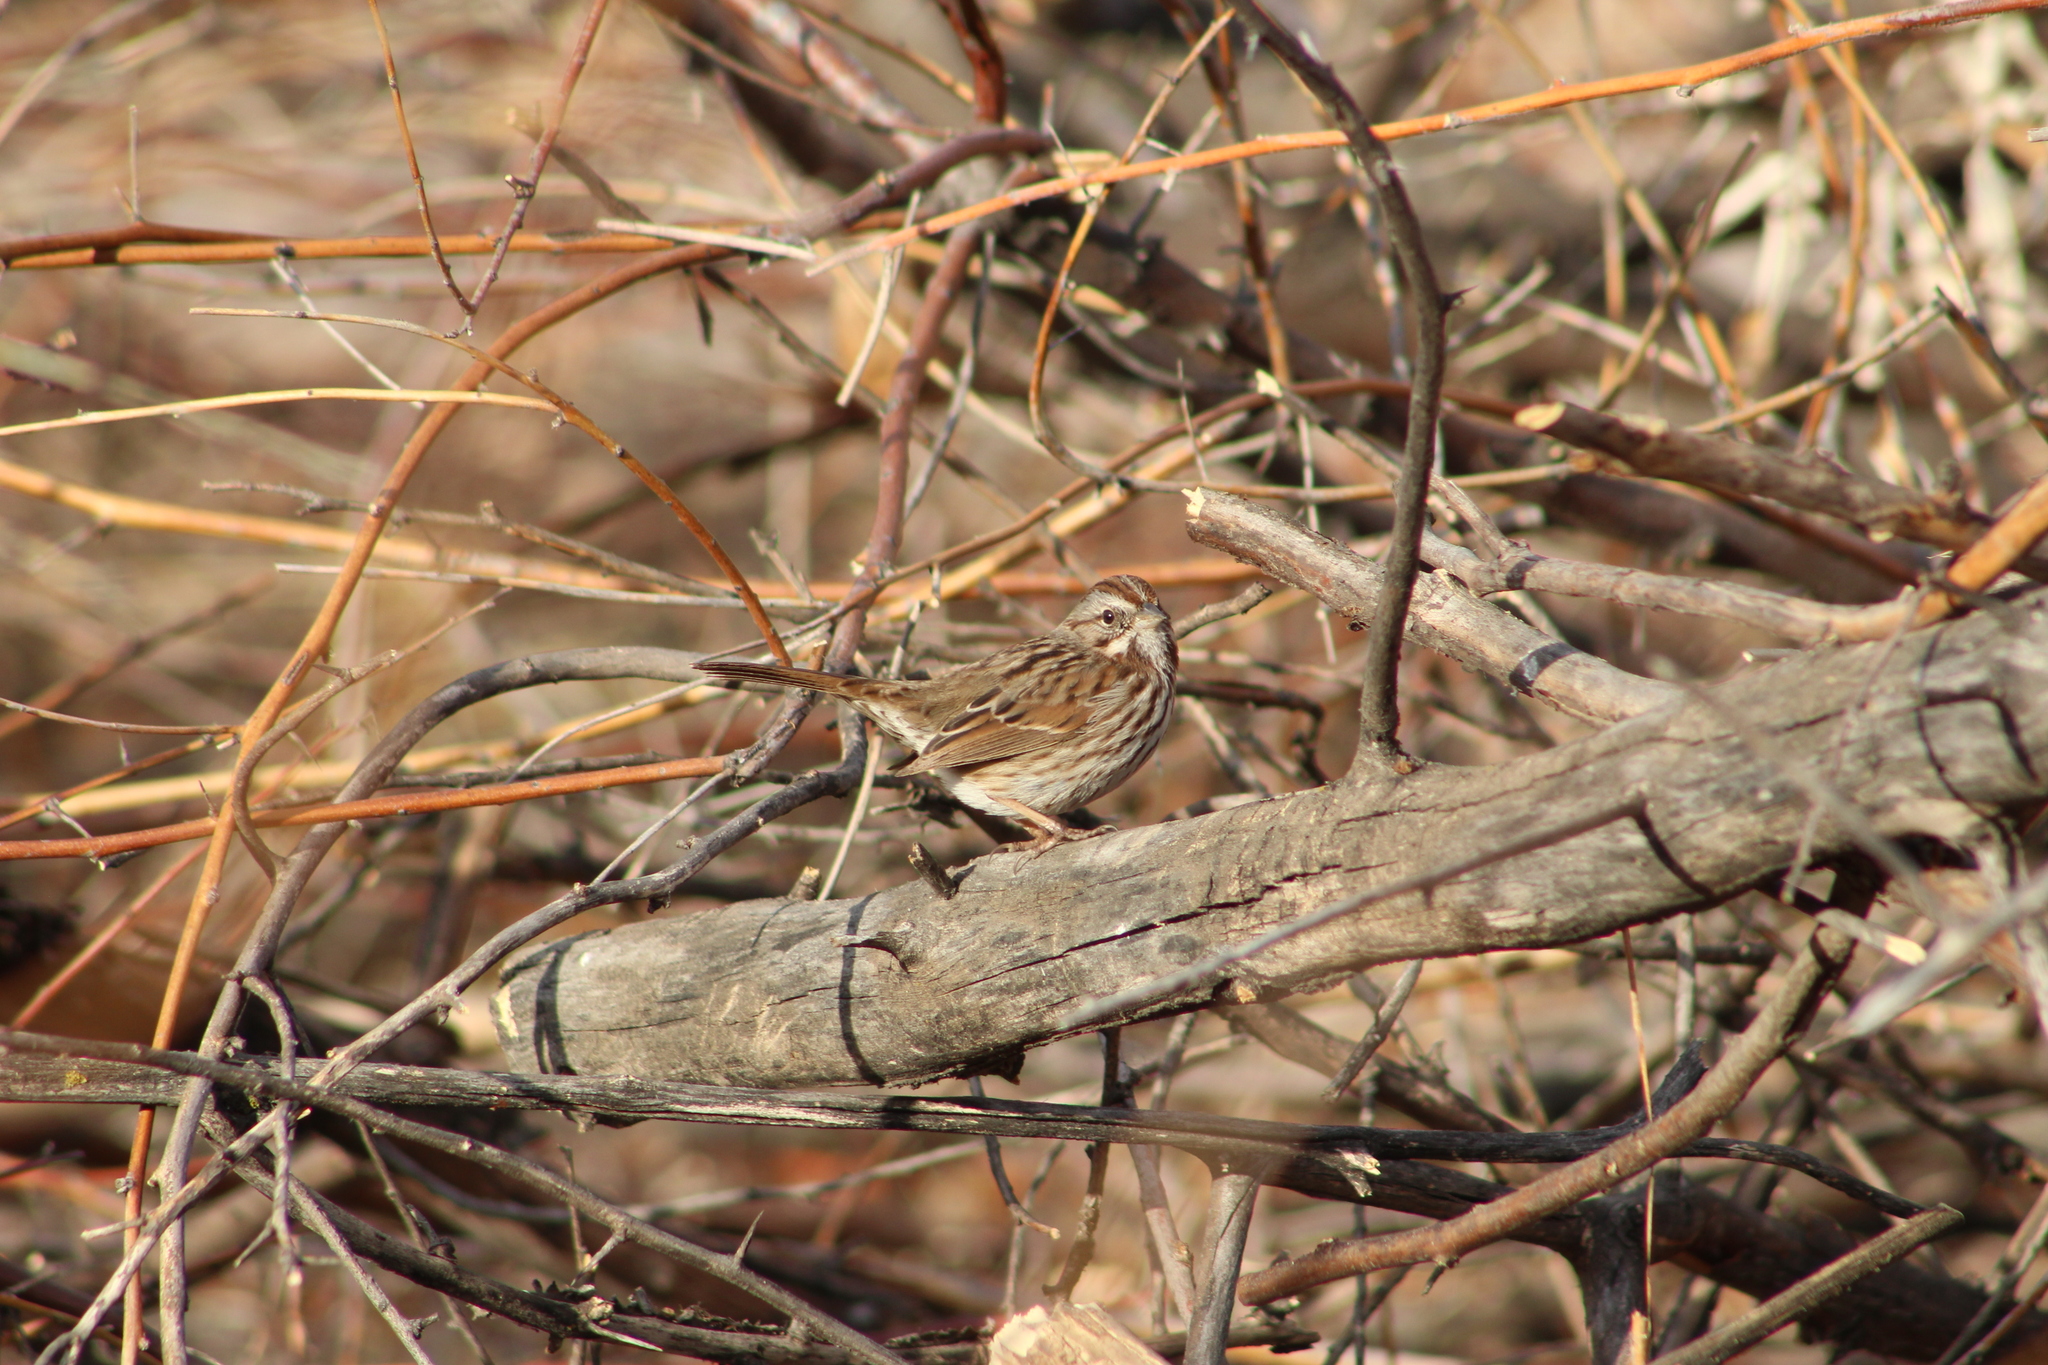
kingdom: Animalia
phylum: Chordata
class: Aves
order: Passeriformes
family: Passerellidae
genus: Melospiza
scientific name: Melospiza melodia
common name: Song sparrow
